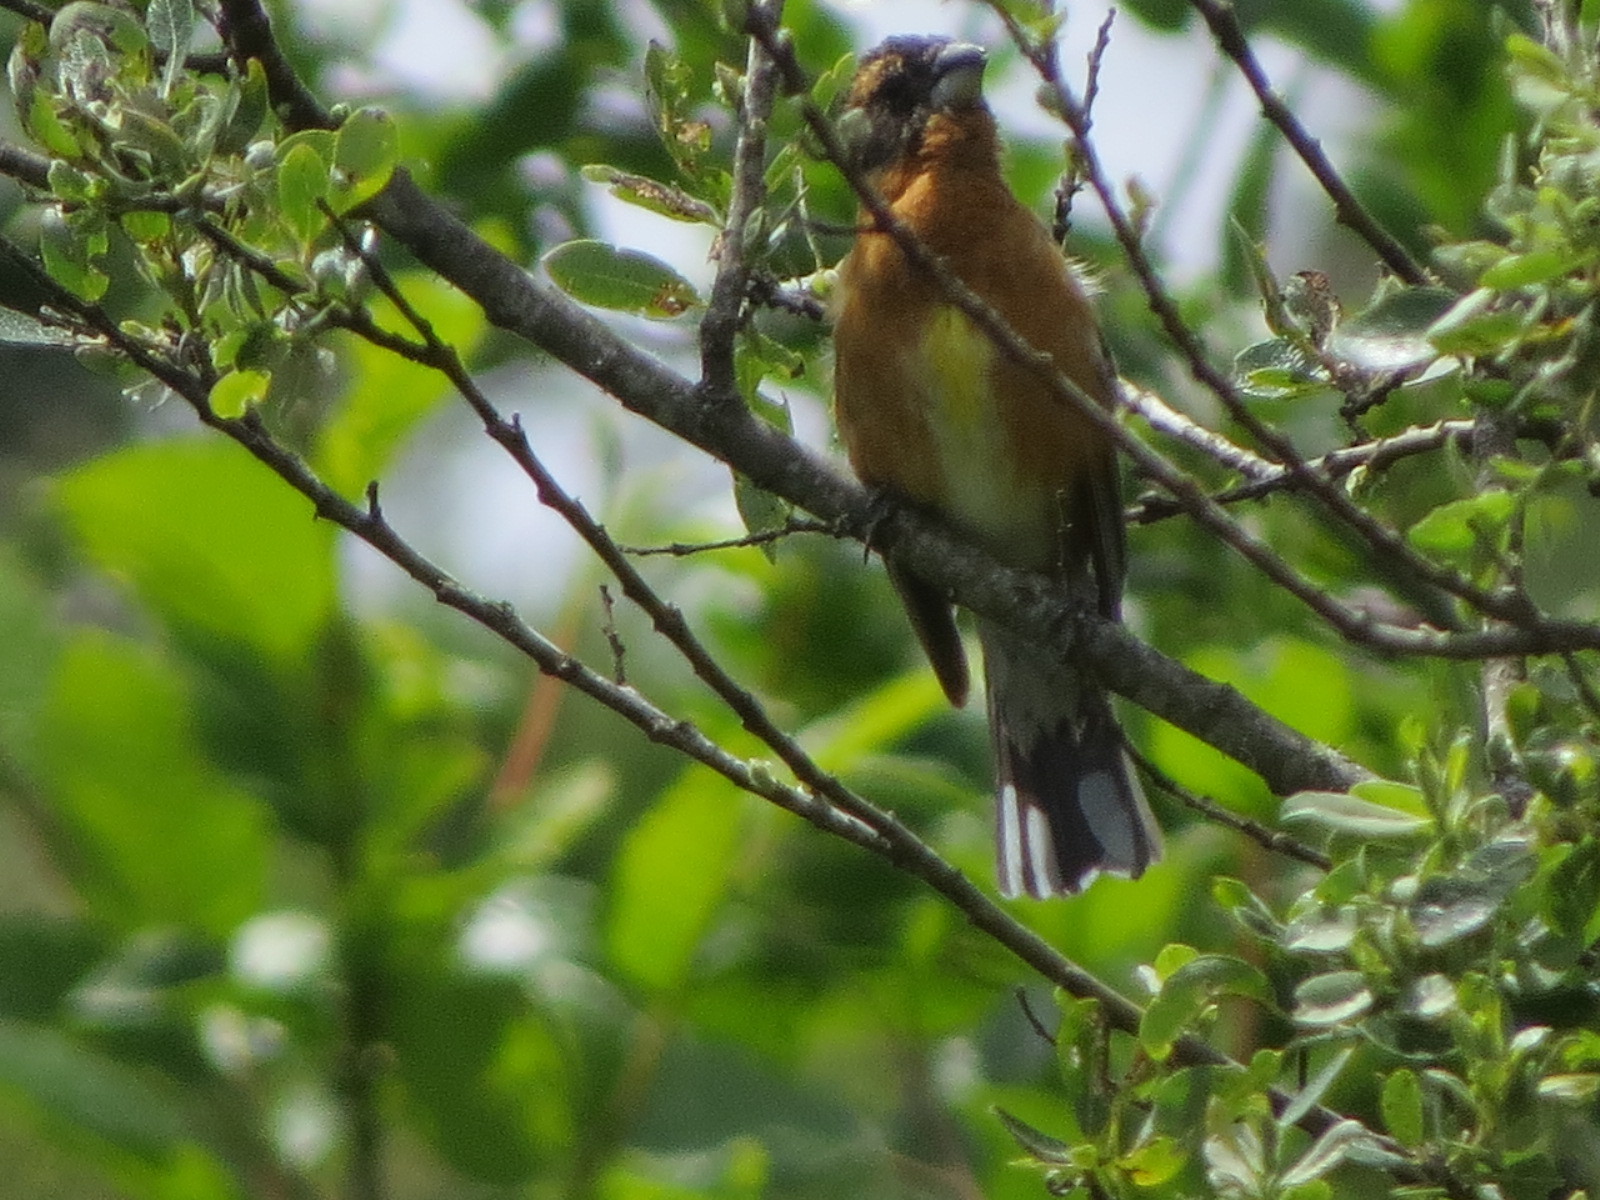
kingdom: Animalia
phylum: Chordata
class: Aves
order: Passeriformes
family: Cardinalidae
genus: Pheucticus
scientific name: Pheucticus melanocephalus
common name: Black-headed grosbeak
